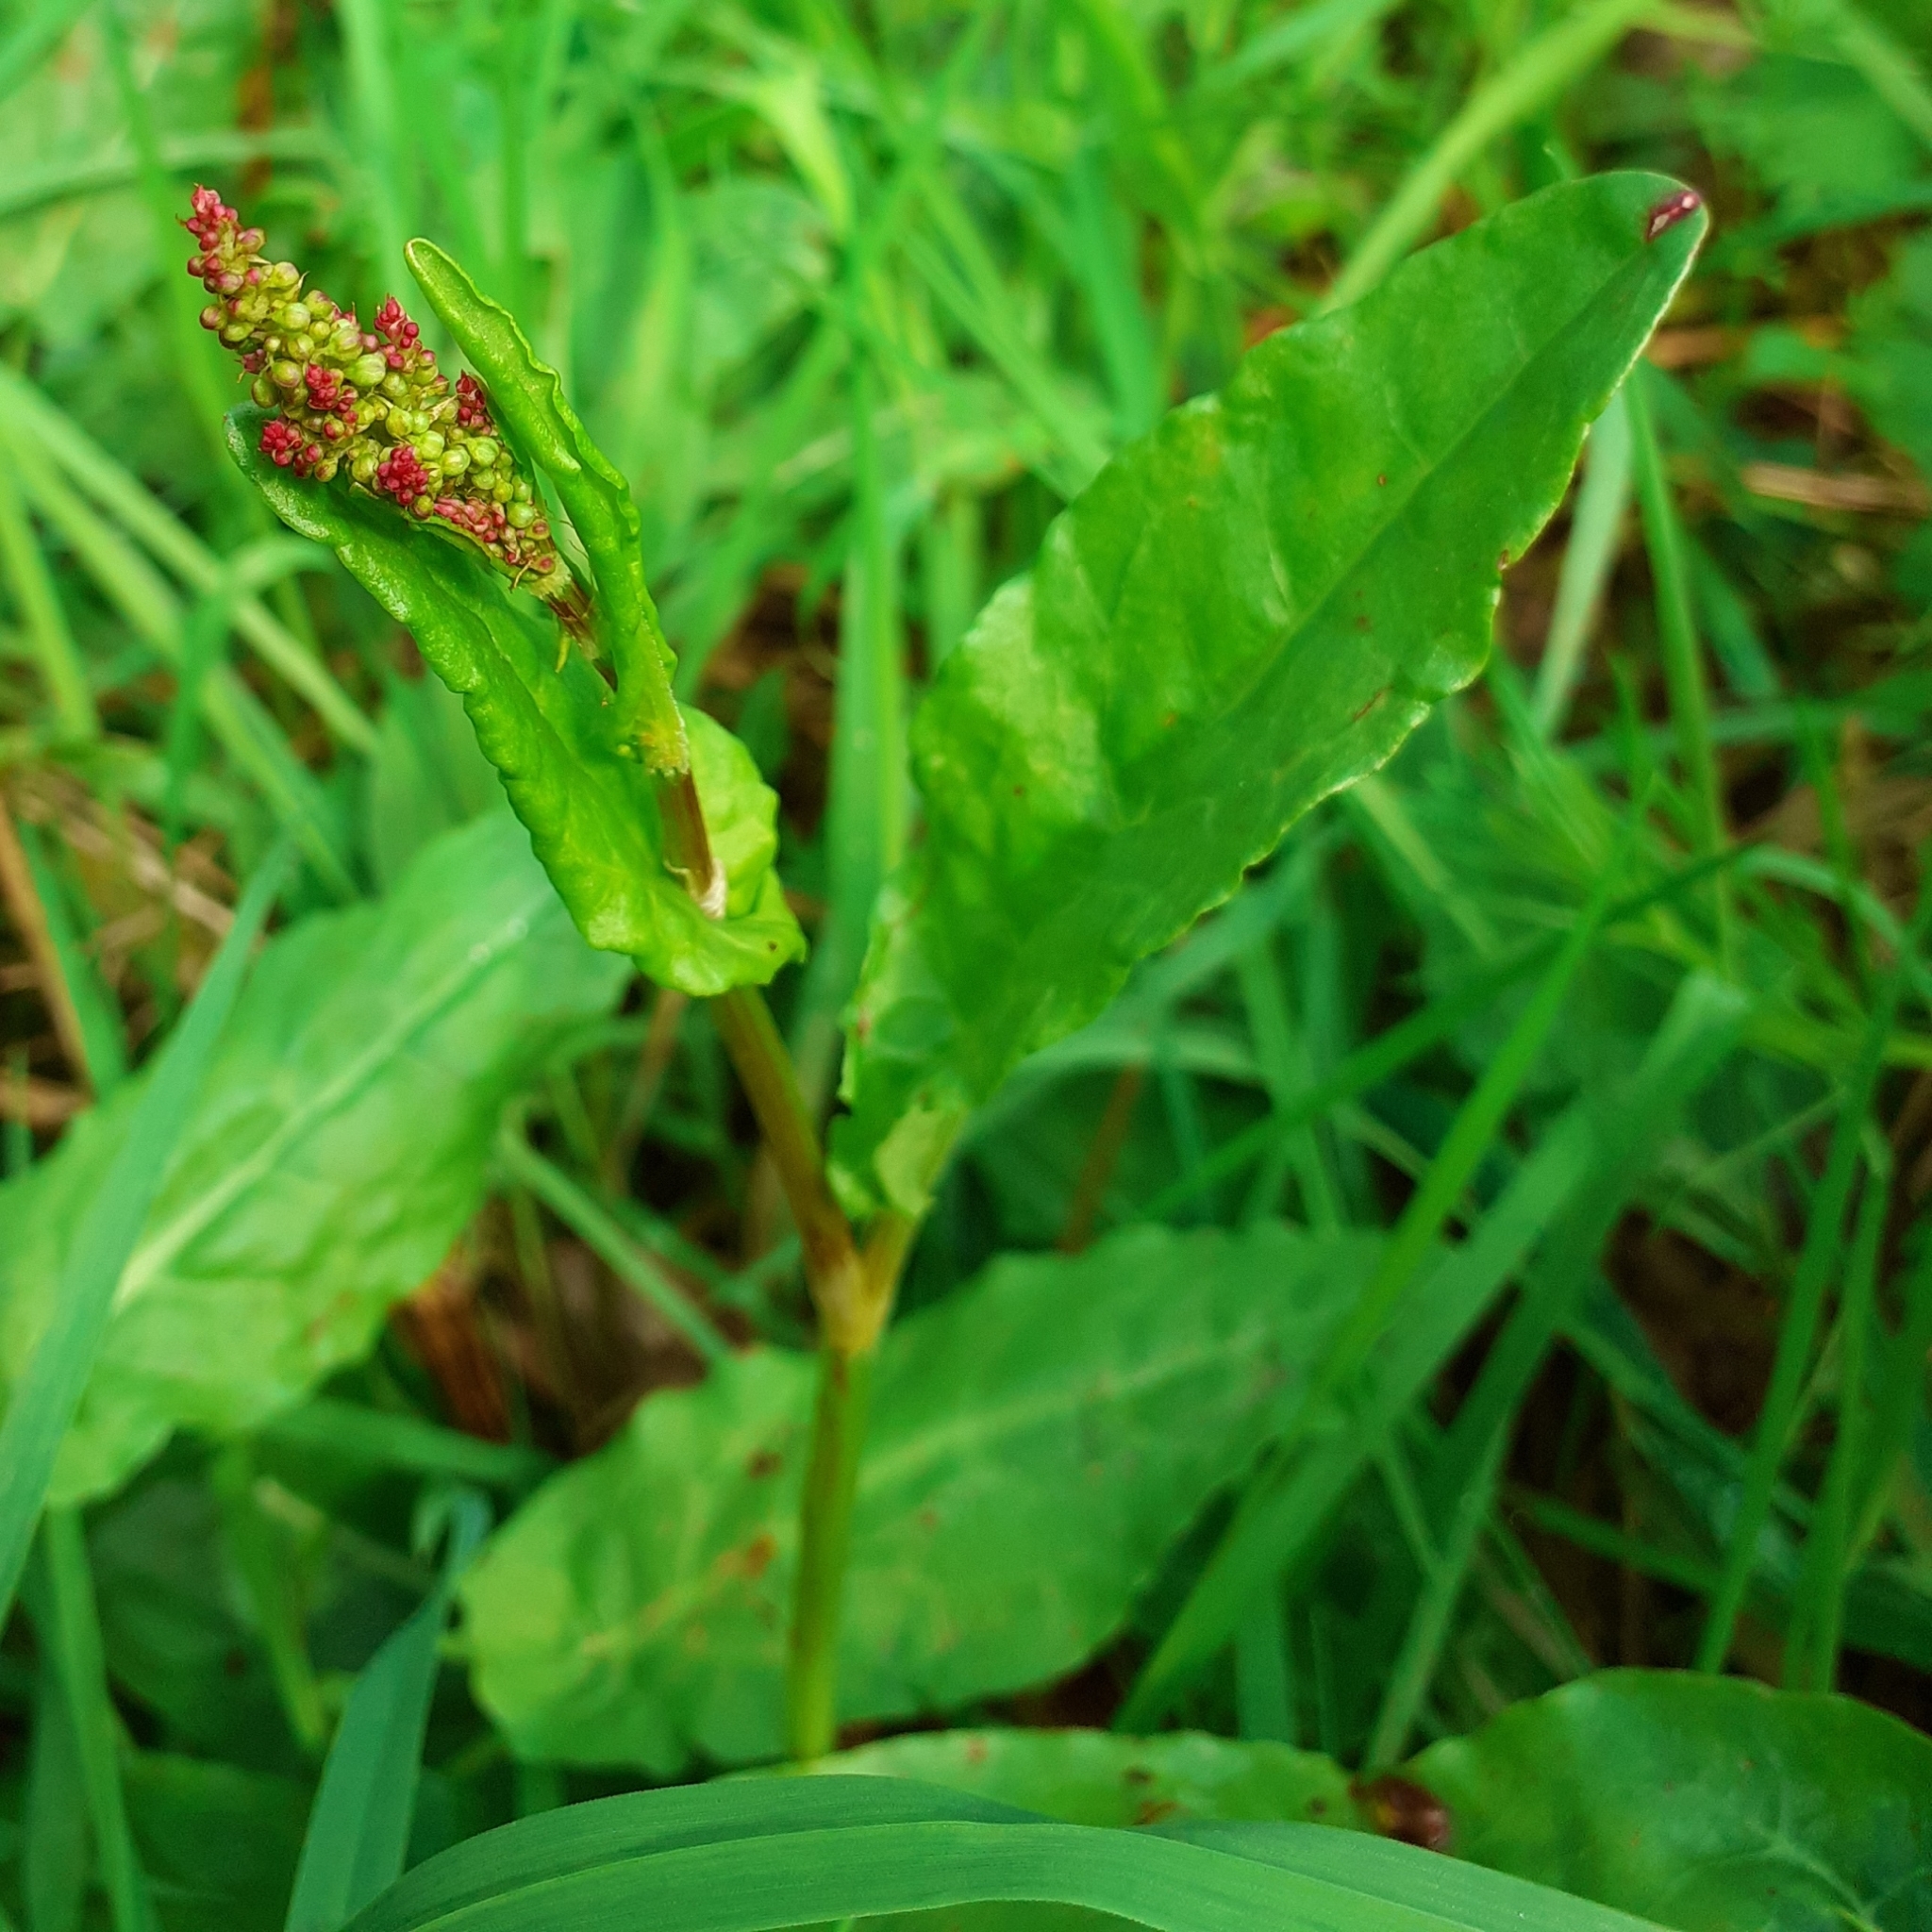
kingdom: Plantae
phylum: Tracheophyta
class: Magnoliopsida
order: Caryophyllales
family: Polygonaceae
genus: Rumex
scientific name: Rumex acetosa
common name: Garden sorrel
